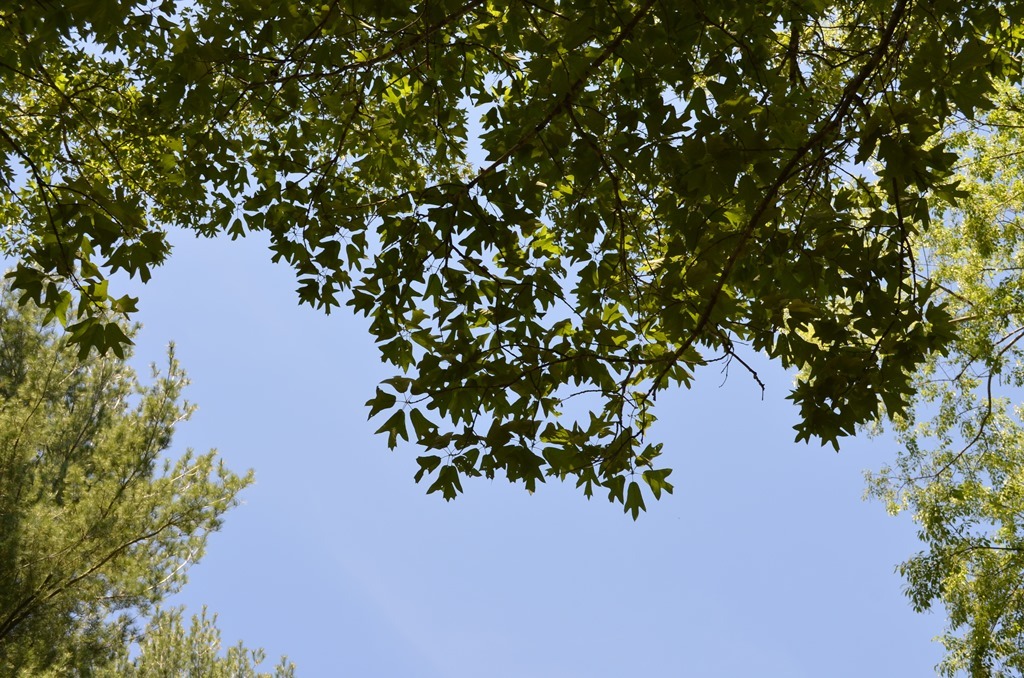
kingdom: Plantae
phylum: Tracheophyta
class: Magnoliopsida
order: Fagales
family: Fagaceae
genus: Quercus
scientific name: Quercus falcata
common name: Southern red oak
